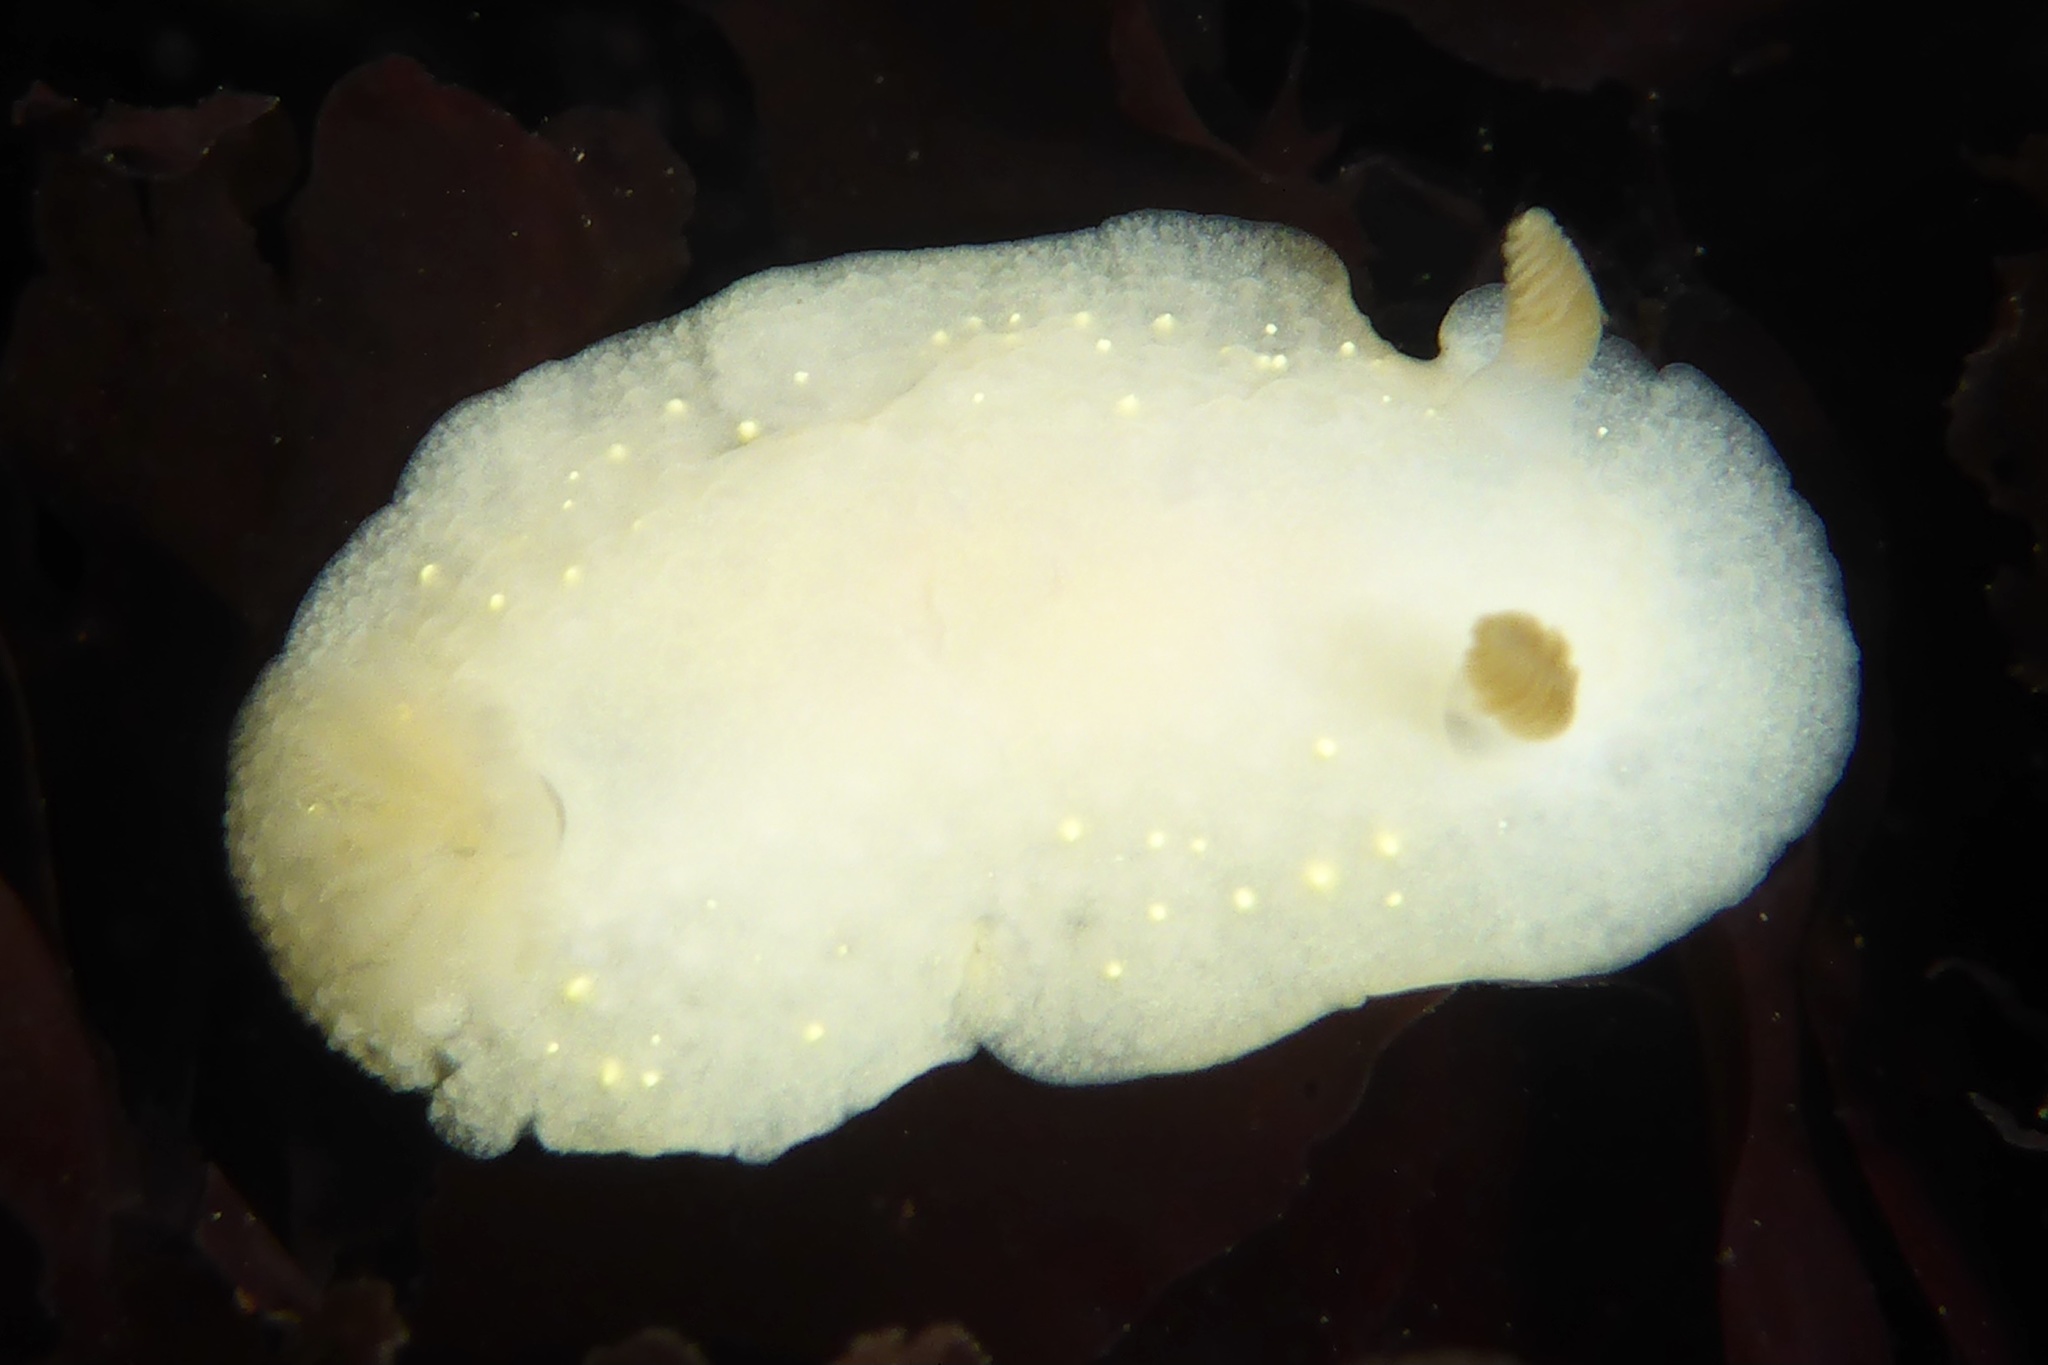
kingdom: Animalia
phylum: Mollusca
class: Gastropoda
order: Nudibranchia
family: Cadlinidae
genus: Cadlina
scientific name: Cadlina modesta
